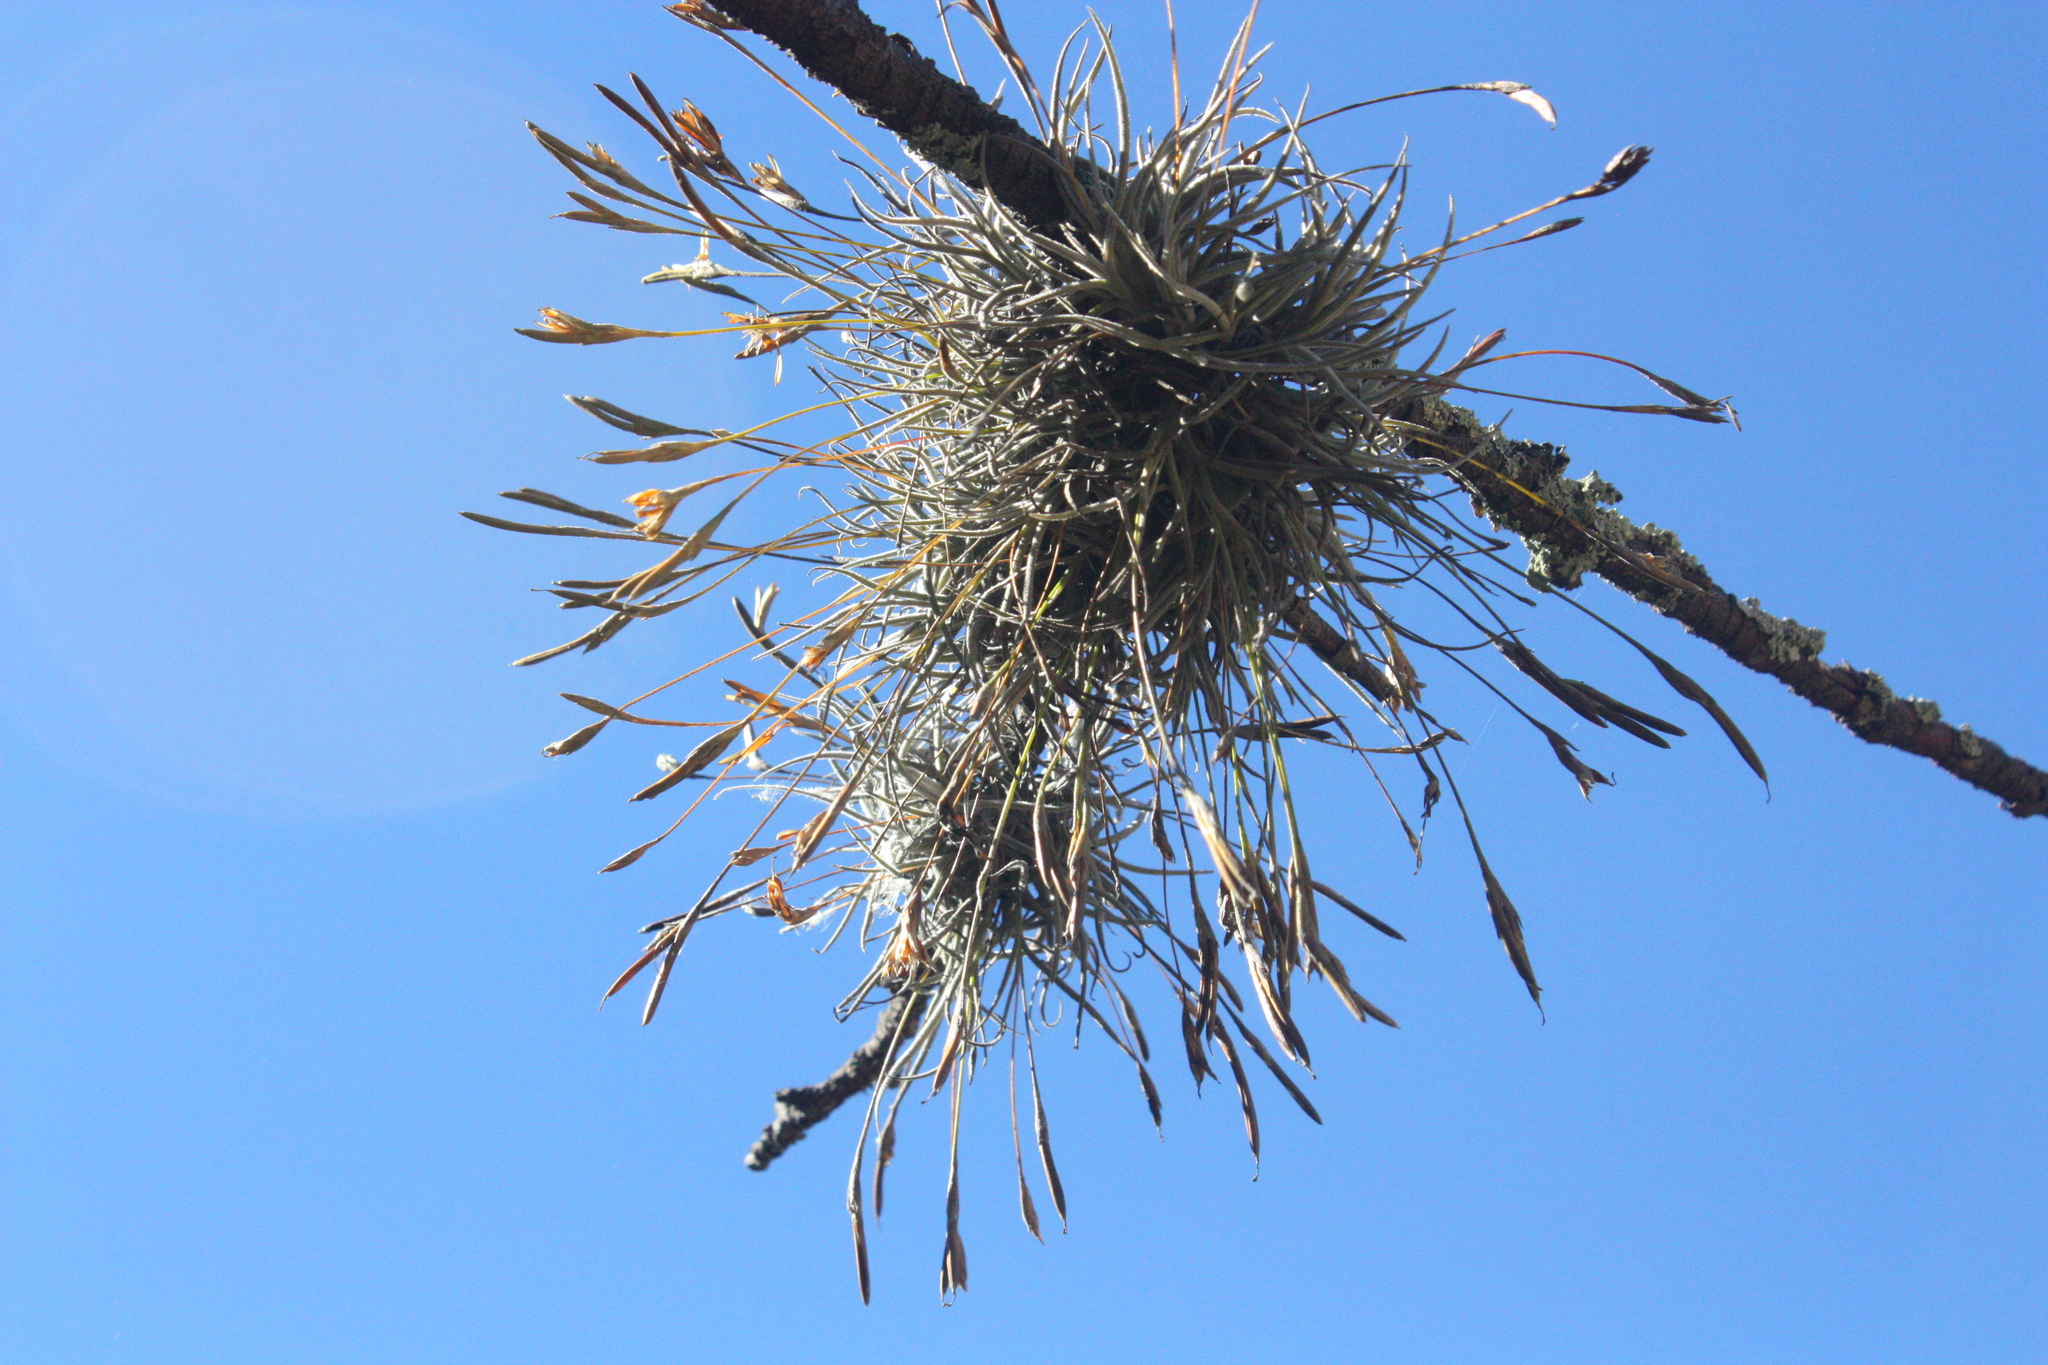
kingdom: Plantae
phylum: Tracheophyta
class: Liliopsida
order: Poales
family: Bromeliaceae
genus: Tillandsia
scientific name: Tillandsia recurvata
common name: Small ballmoss
